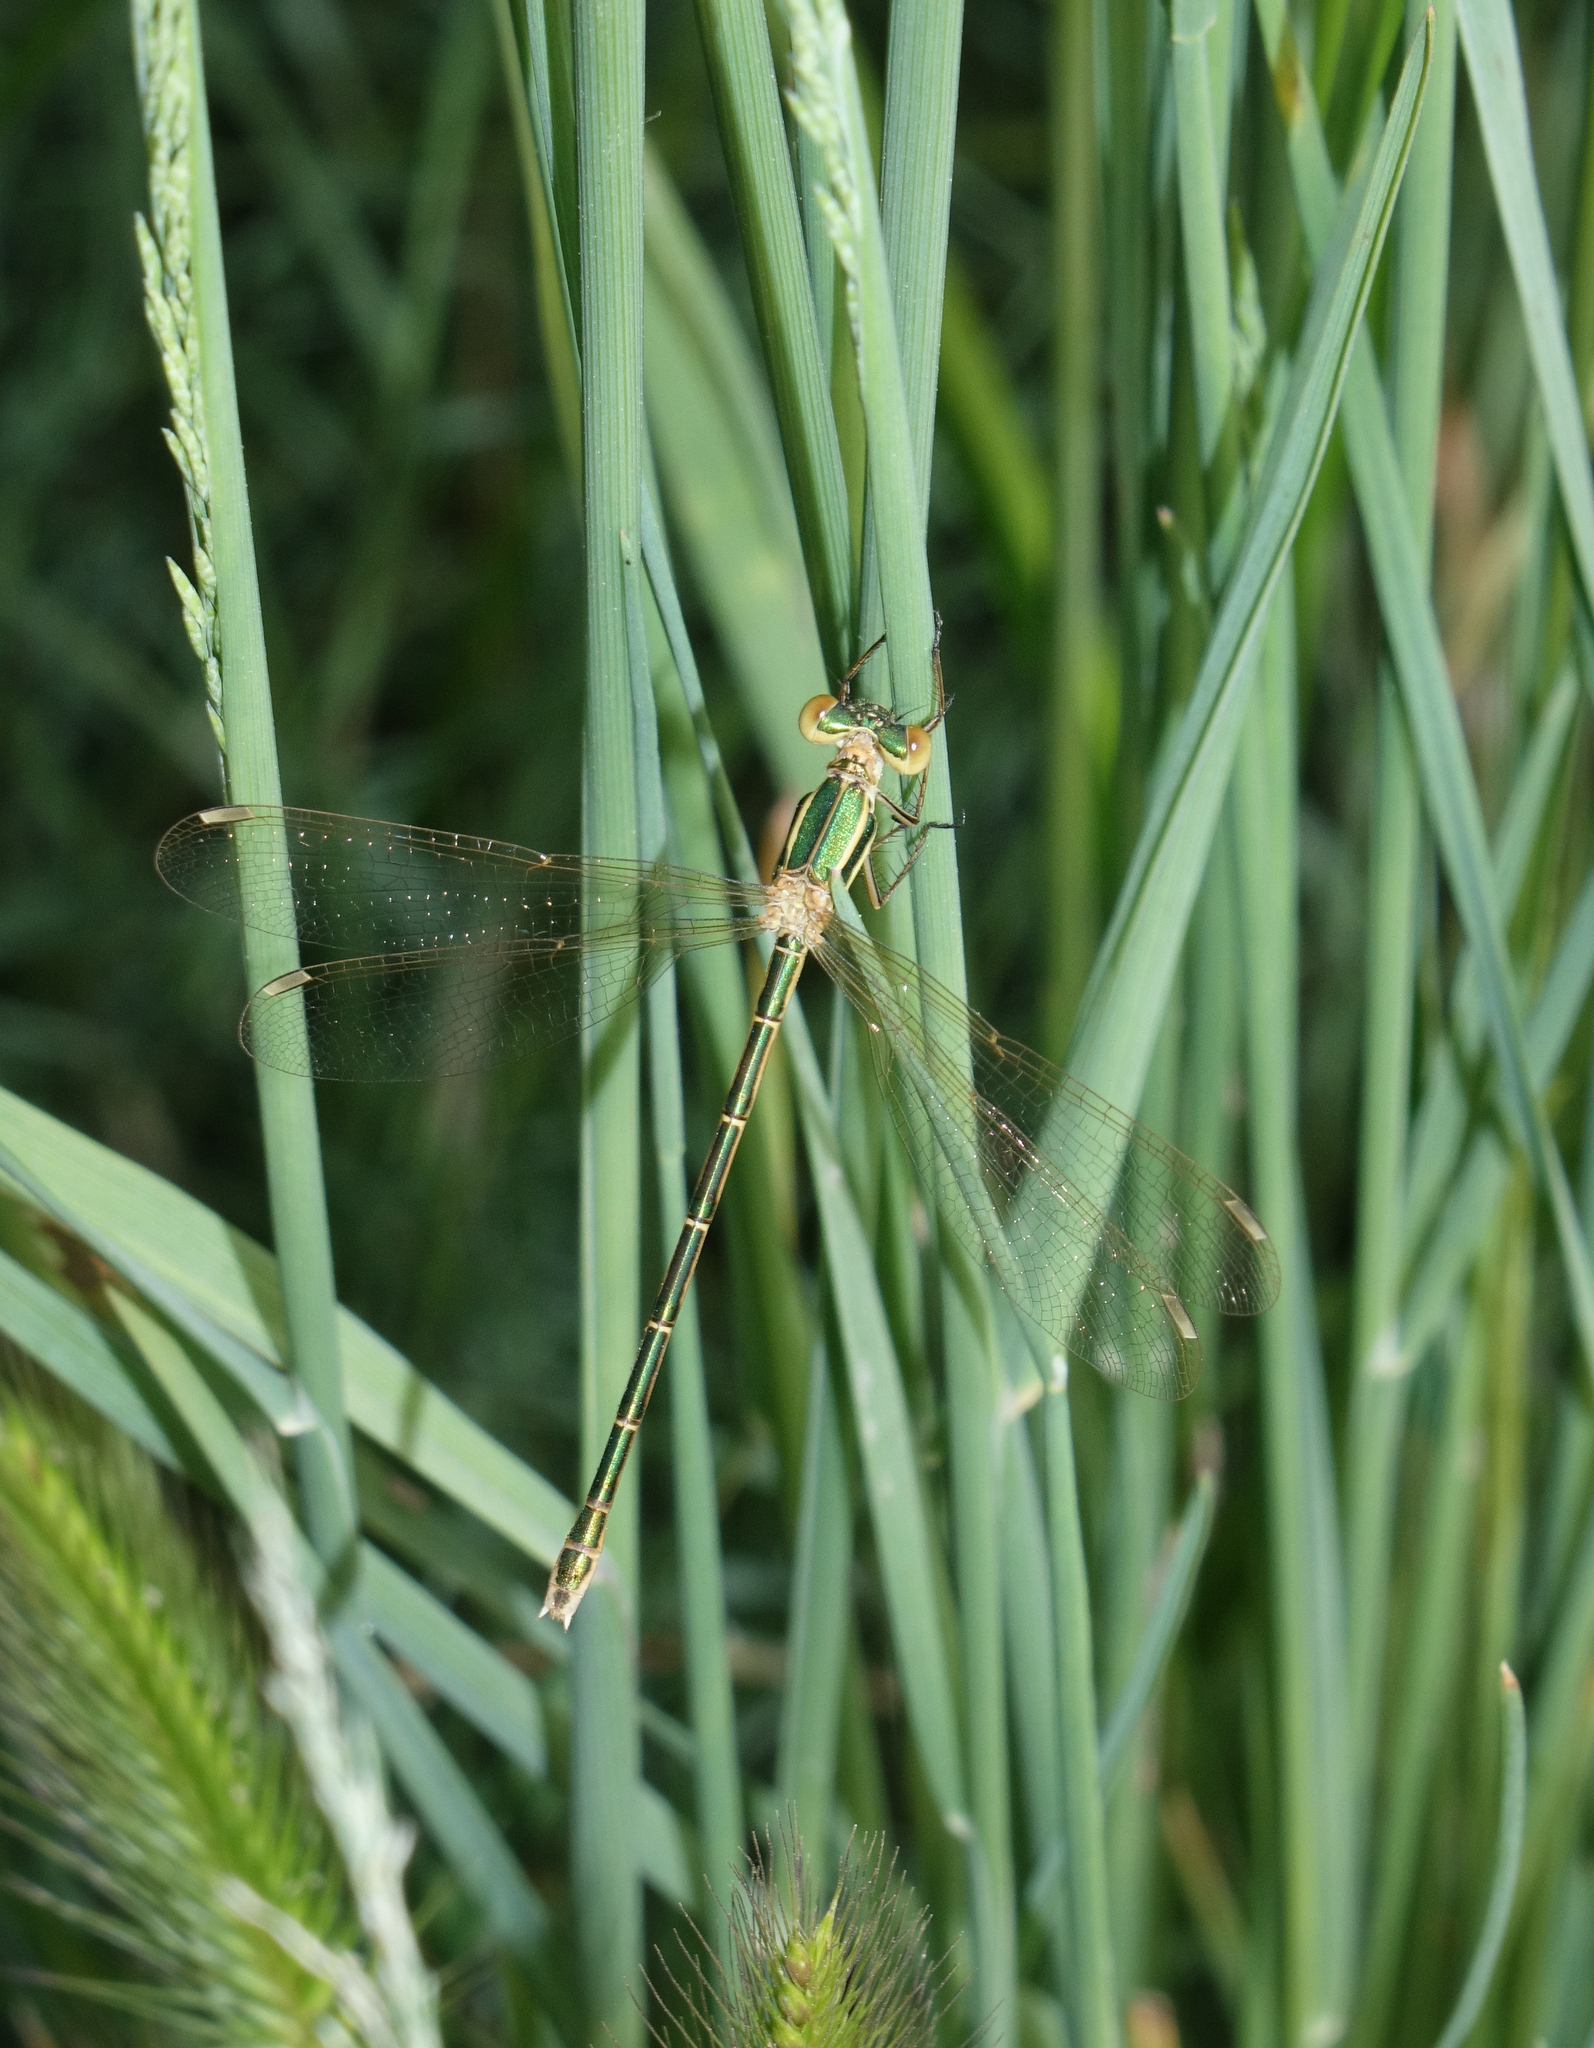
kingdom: Animalia
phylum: Arthropoda
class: Insecta
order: Odonata
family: Lestidae
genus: Lestes
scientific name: Lestes barbarus
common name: Migrant spreadwing
